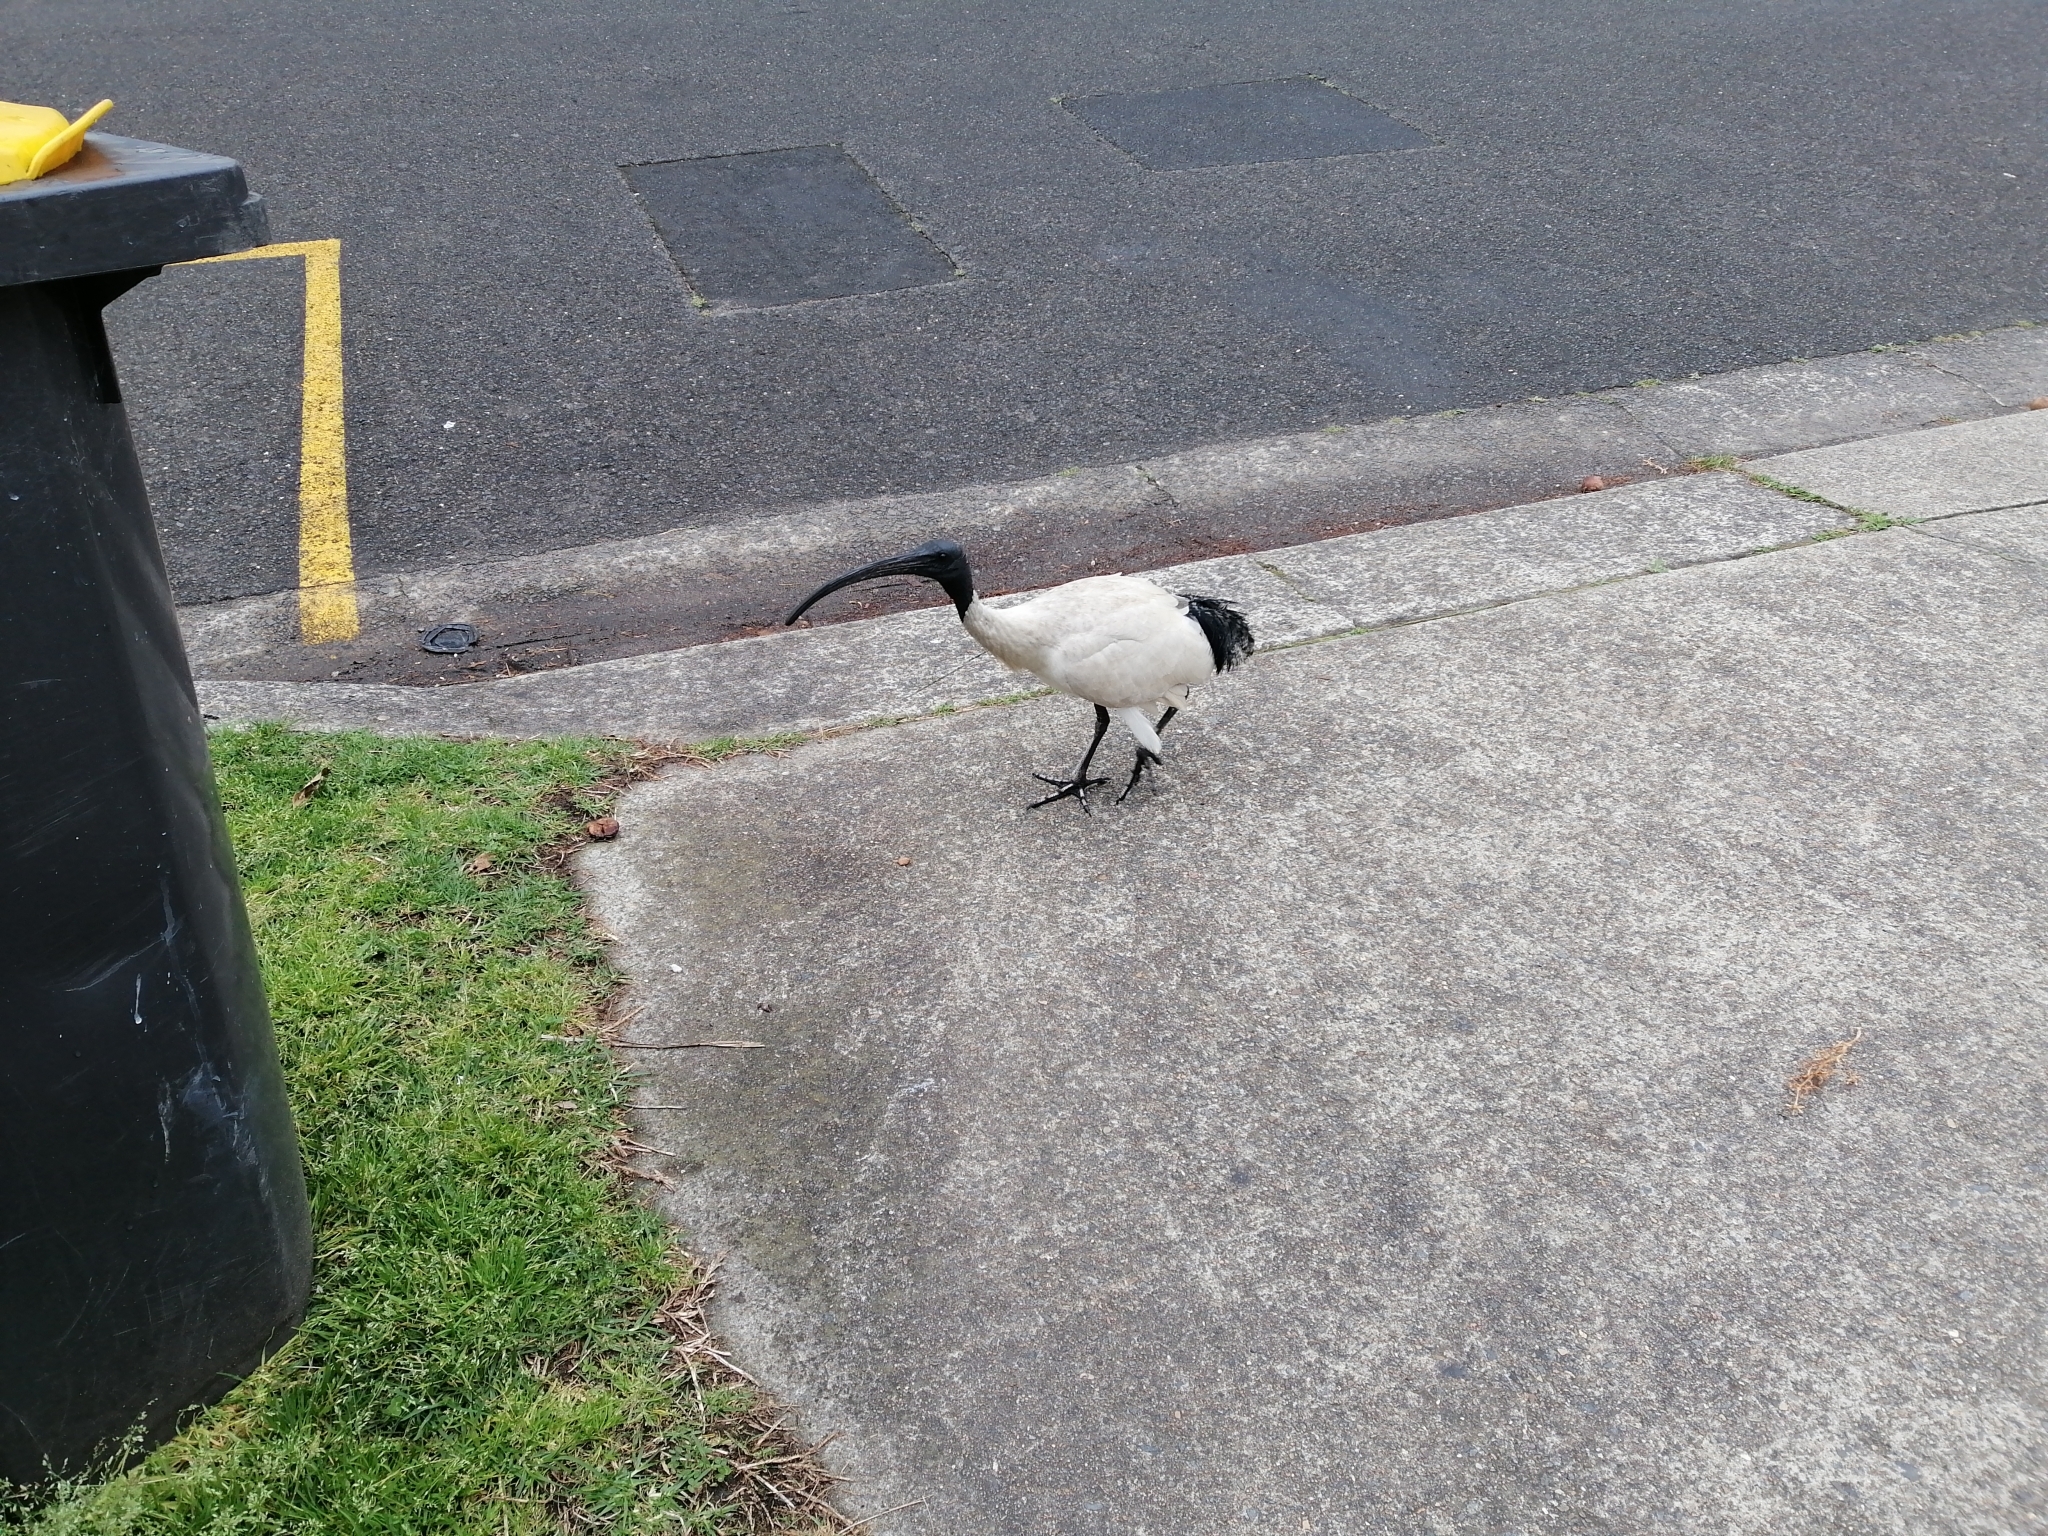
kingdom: Animalia
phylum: Chordata
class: Aves
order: Pelecaniformes
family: Threskiornithidae
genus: Threskiornis
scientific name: Threskiornis molucca
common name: Australian white ibis
